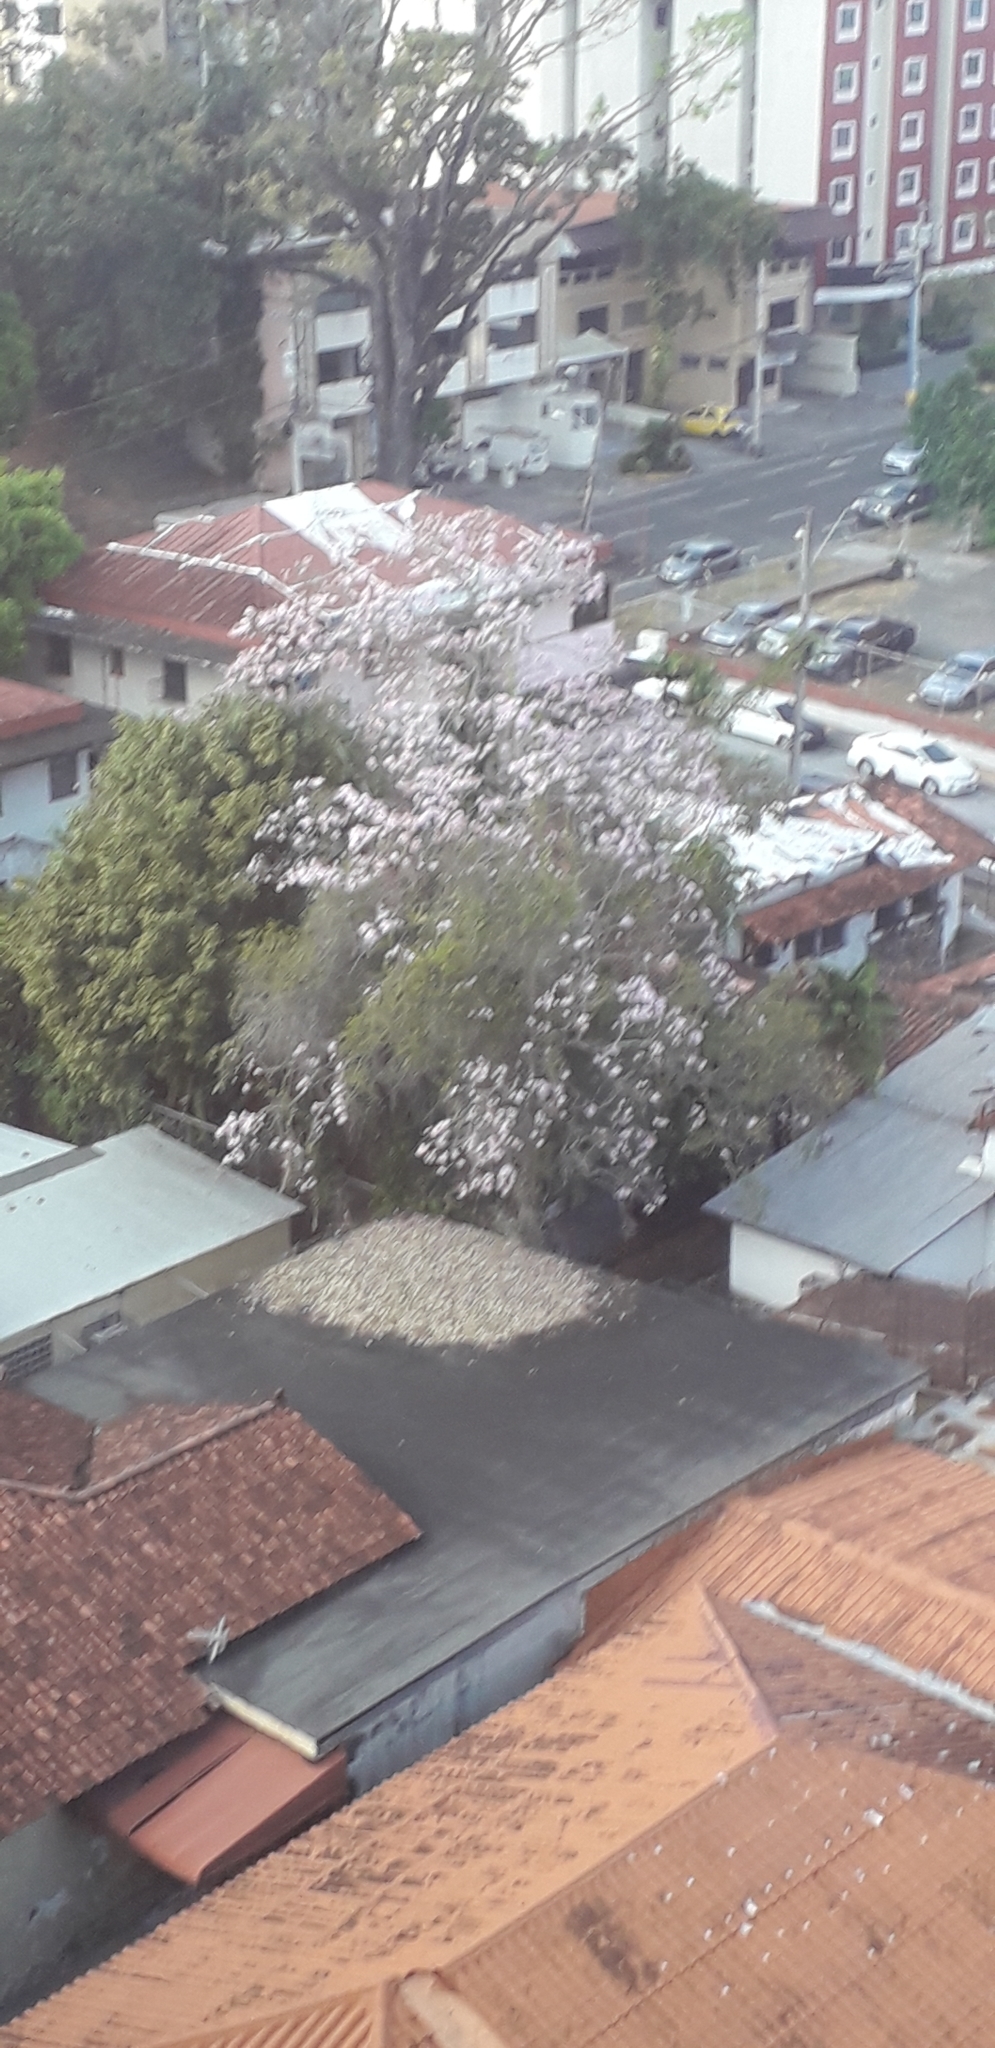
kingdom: Plantae
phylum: Tracheophyta
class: Magnoliopsida
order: Lamiales
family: Bignoniaceae
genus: Tabebuia
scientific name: Tabebuia rosea
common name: Pink poui
